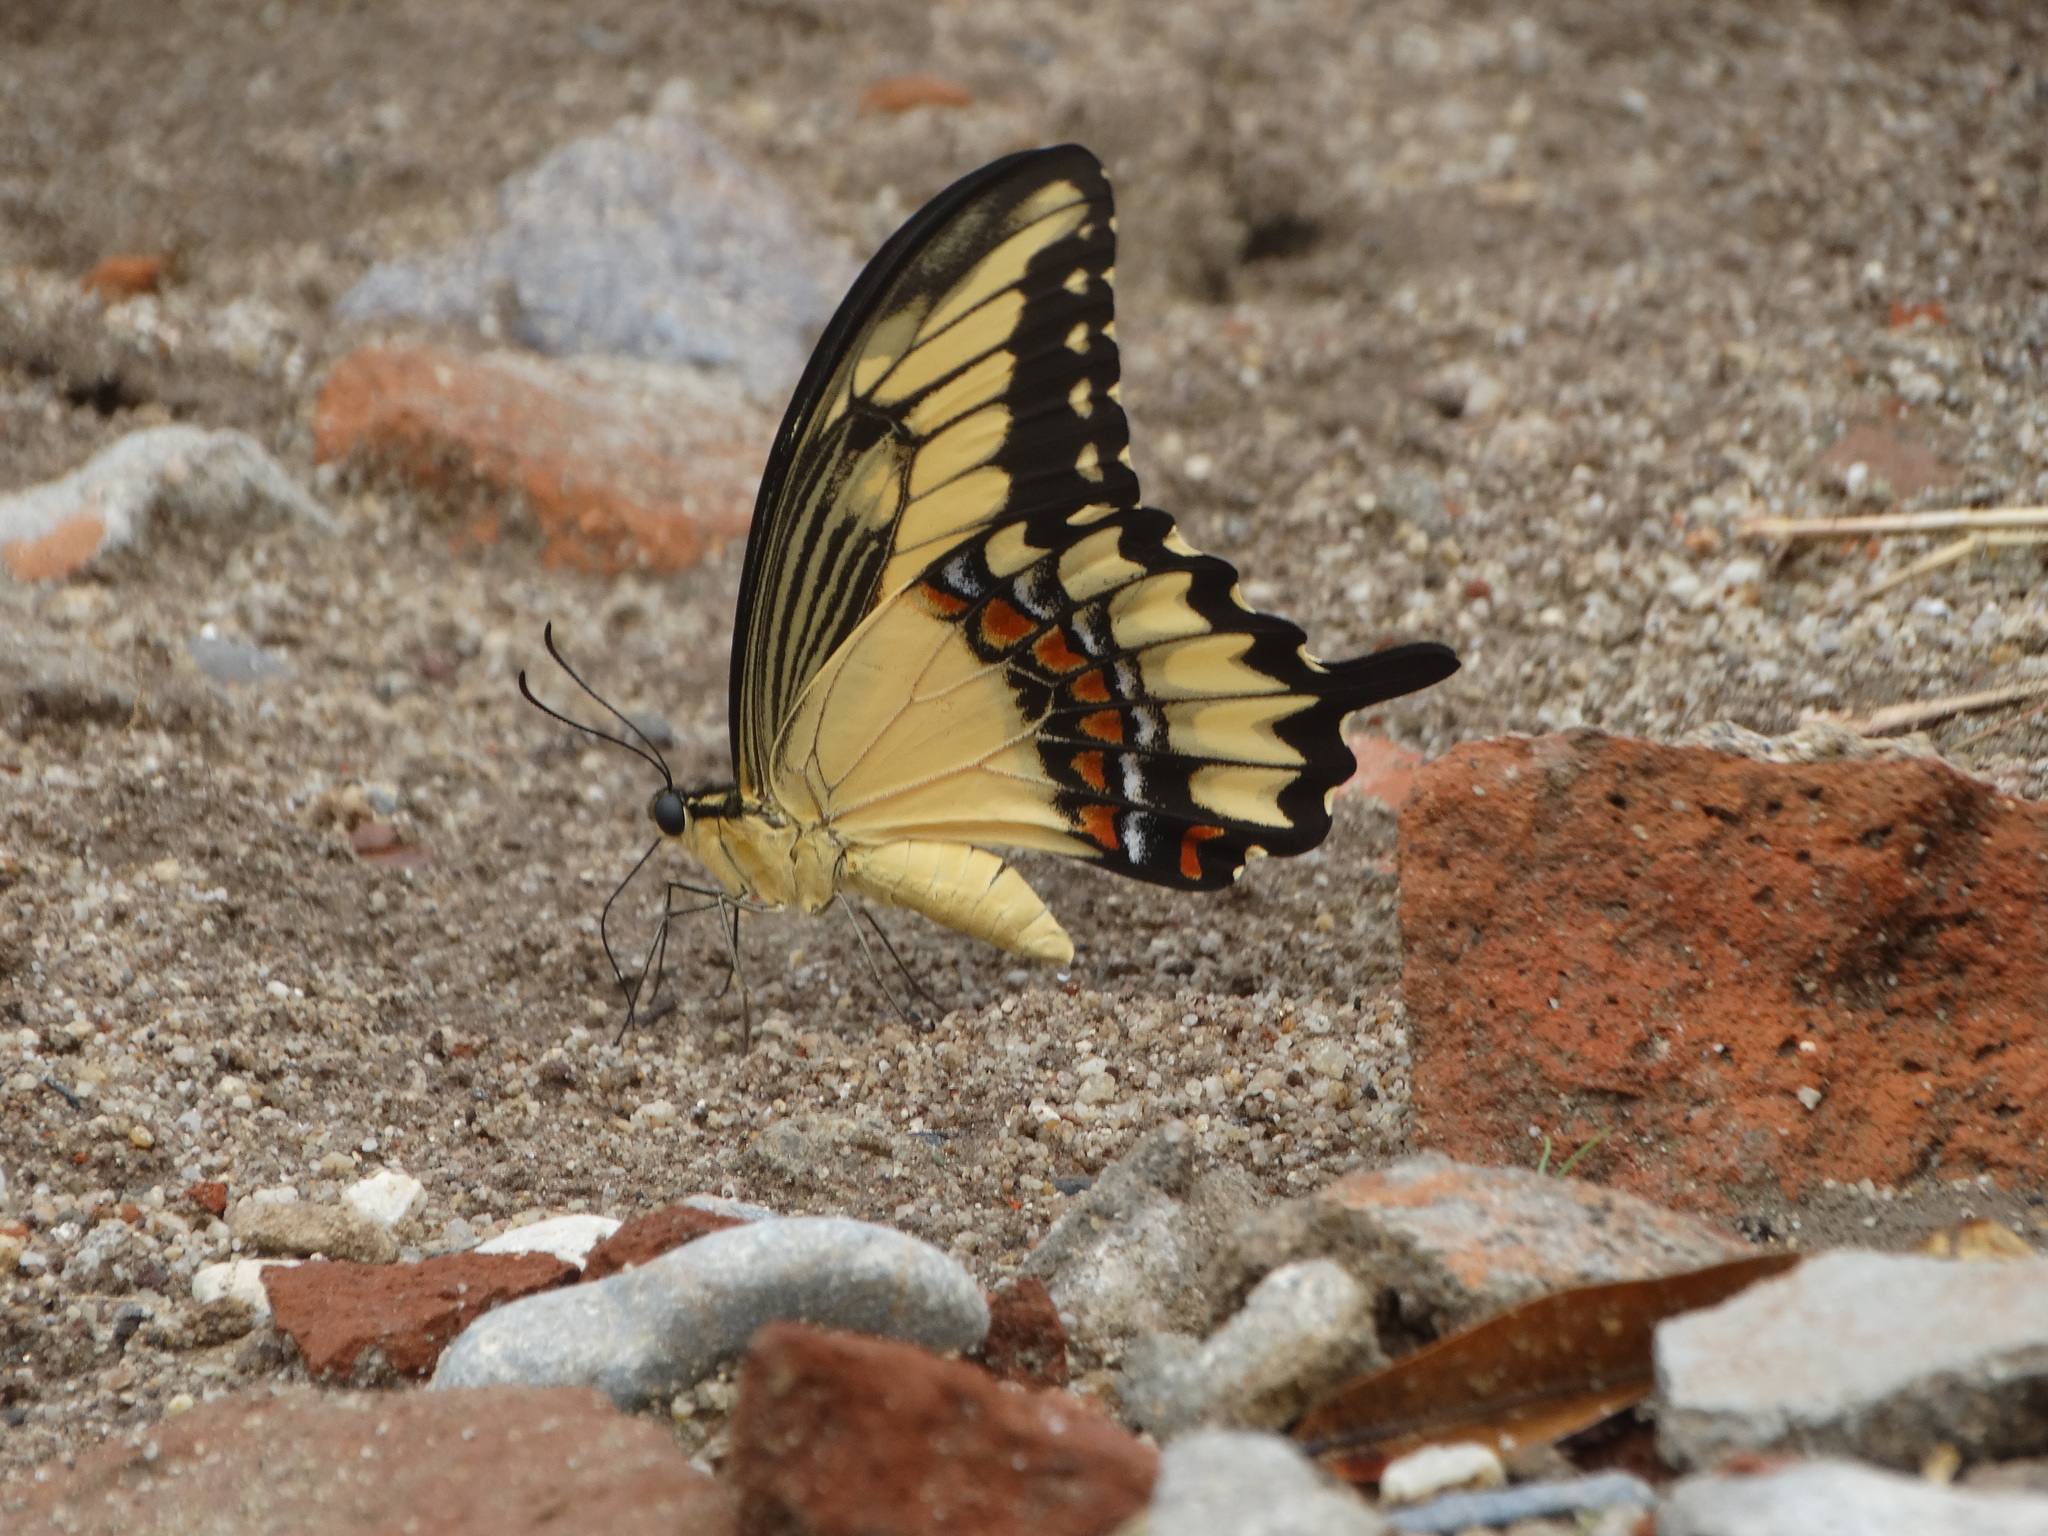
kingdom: Animalia
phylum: Arthropoda
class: Insecta
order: Lepidoptera
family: Papilionidae
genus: Heraclides
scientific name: Heraclides pallas
